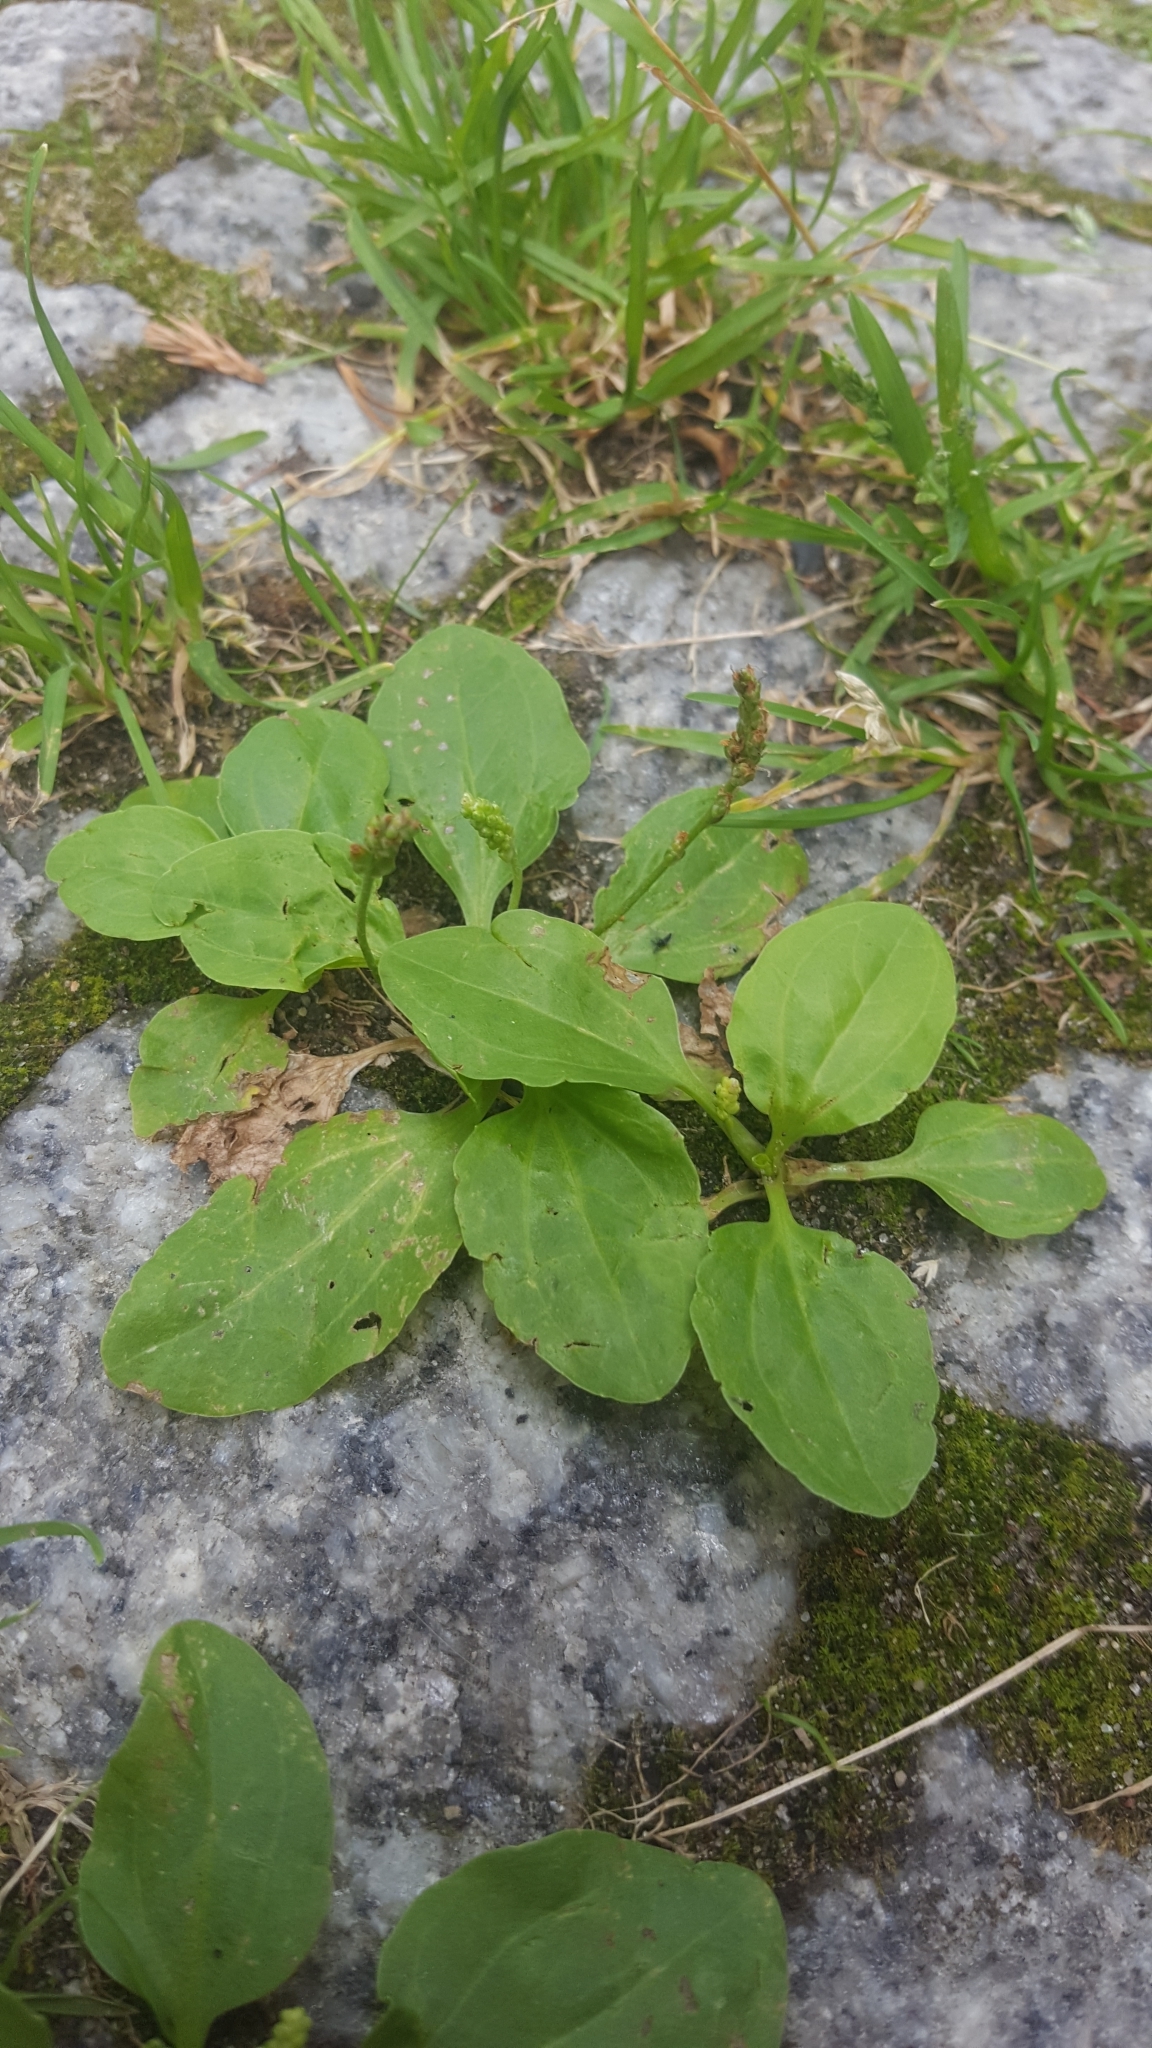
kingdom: Plantae
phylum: Tracheophyta
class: Magnoliopsida
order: Lamiales
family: Plantaginaceae
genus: Plantago
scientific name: Plantago major
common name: Common plantain
